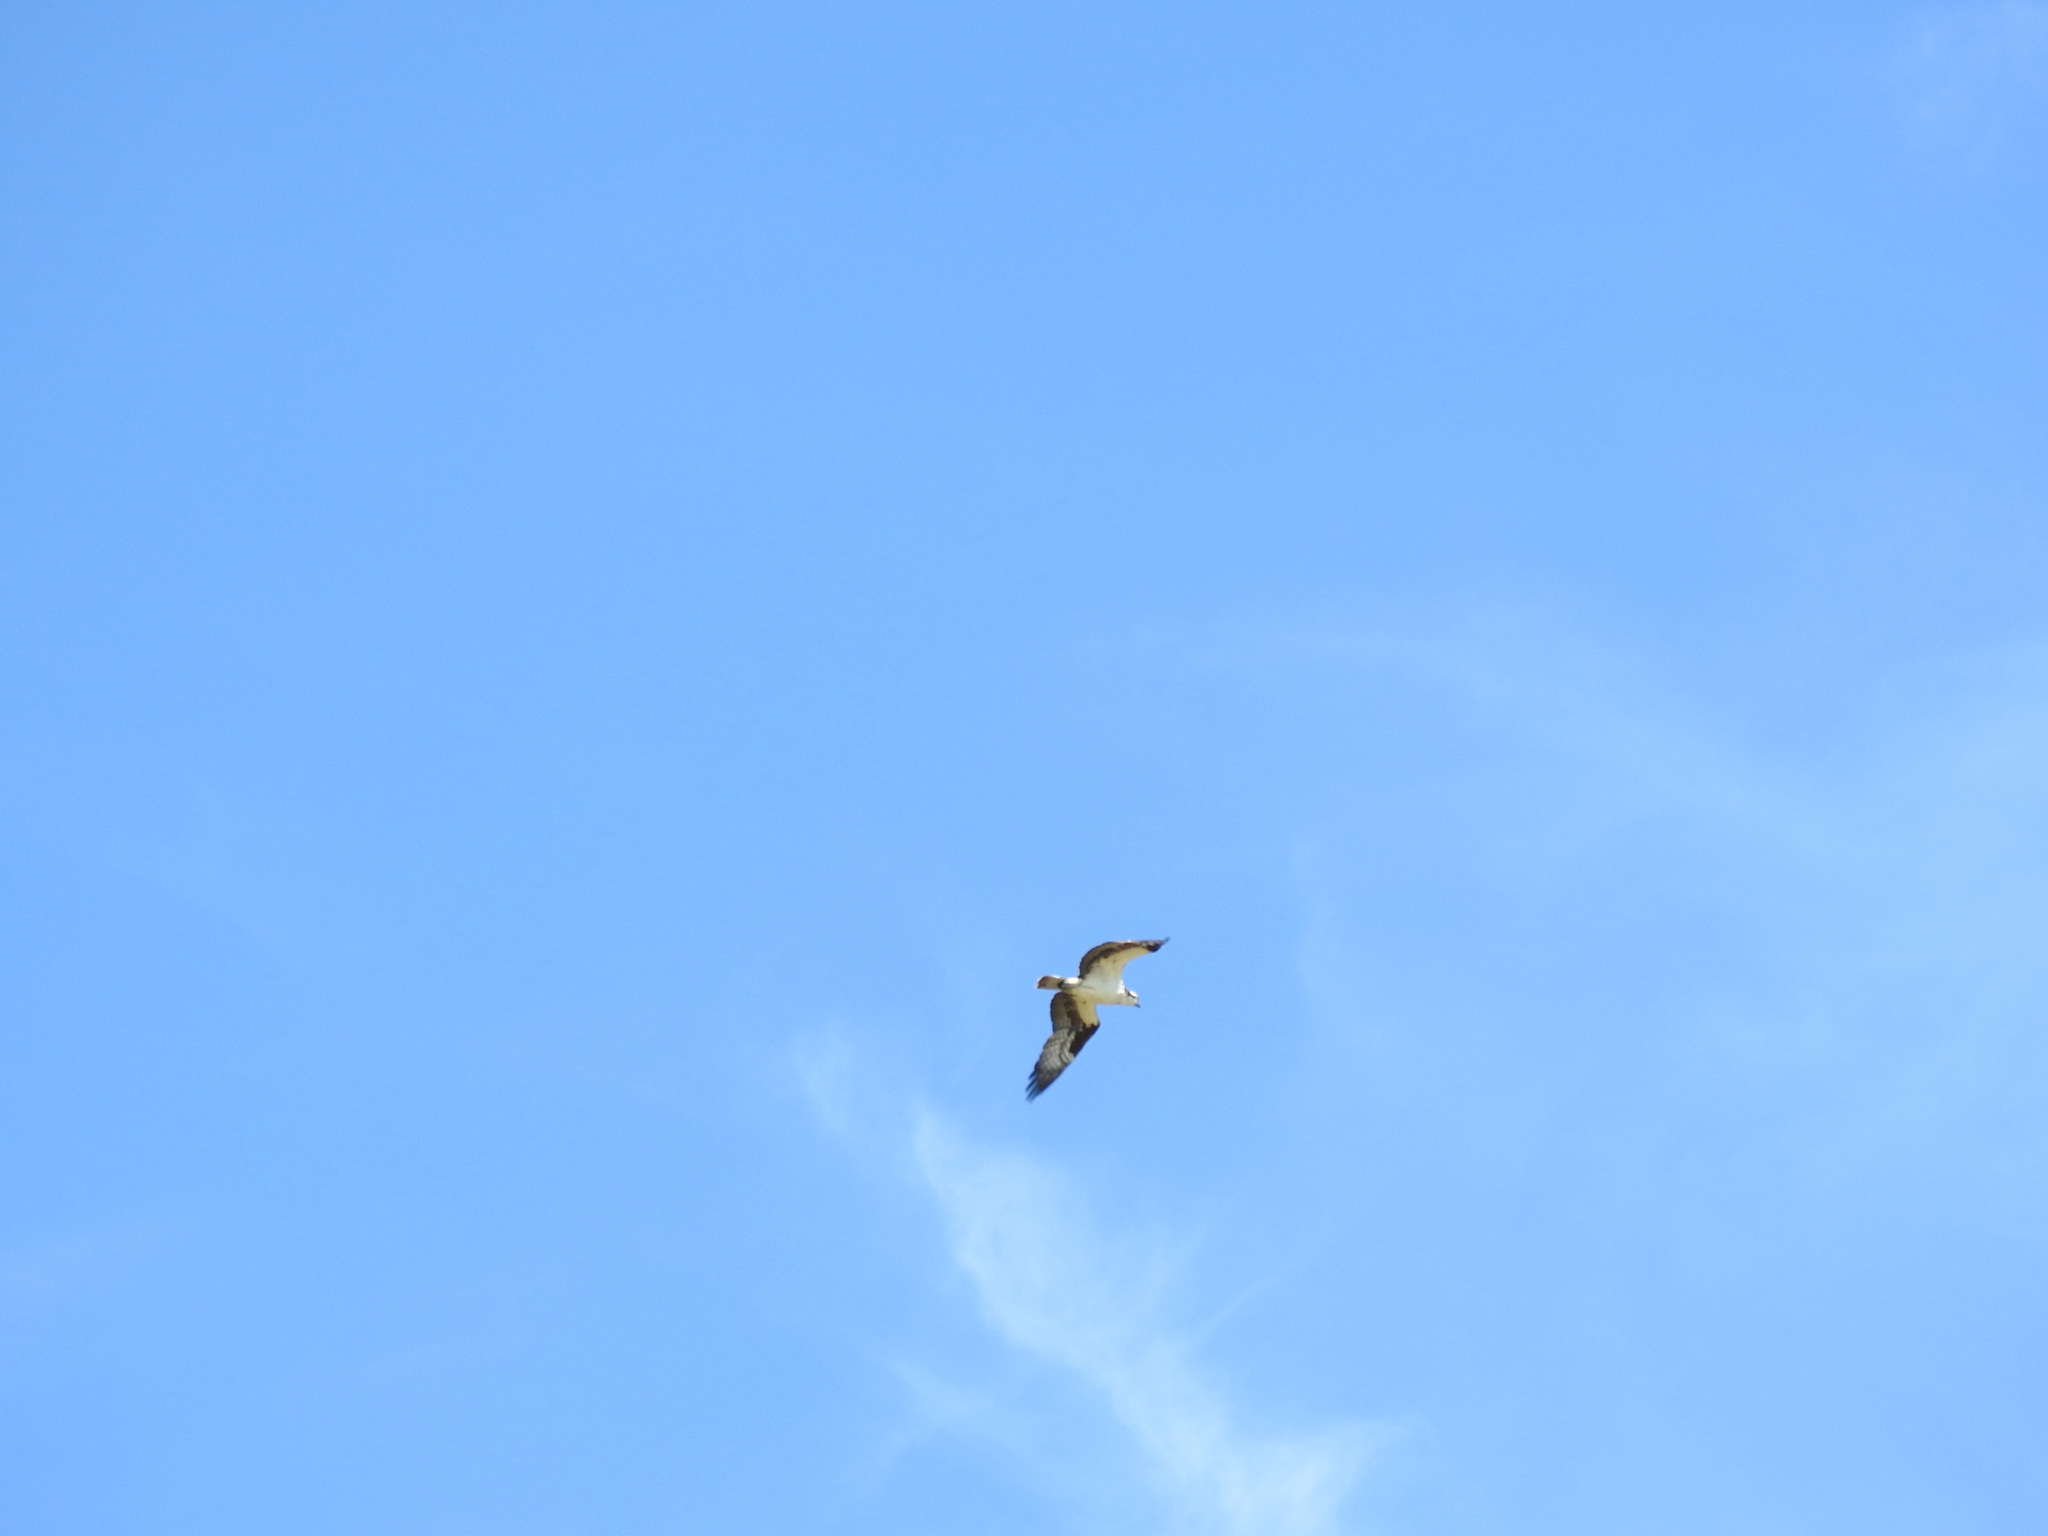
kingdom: Animalia
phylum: Chordata
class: Aves
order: Accipitriformes
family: Pandionidae
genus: Pandion
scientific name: Pandion haliaetus
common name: Osprey
